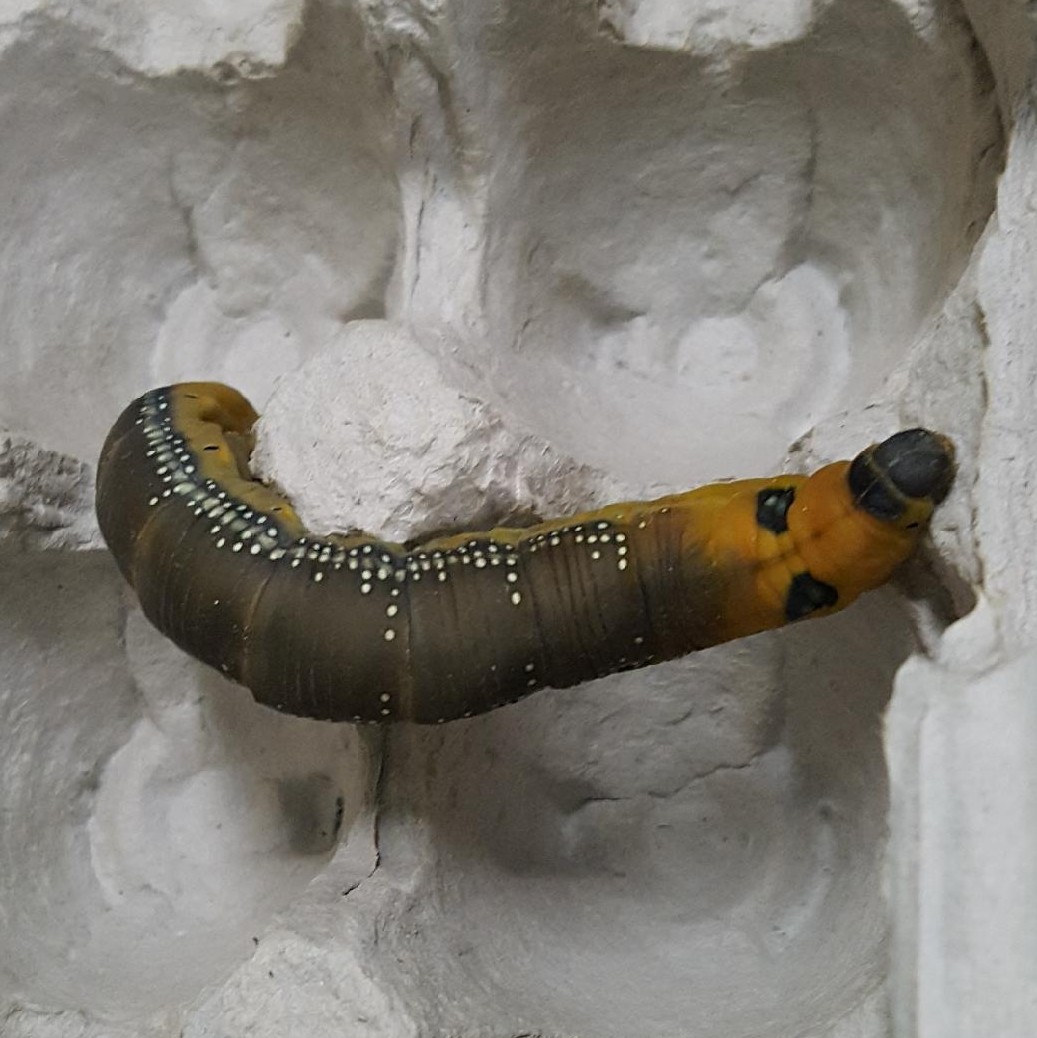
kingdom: Animalia
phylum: Arthropoda
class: Insecta
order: Lepidoptera
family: Sphingidae
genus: Daphnis
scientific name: Daphnis nerii
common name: Oleander hawk-moth
